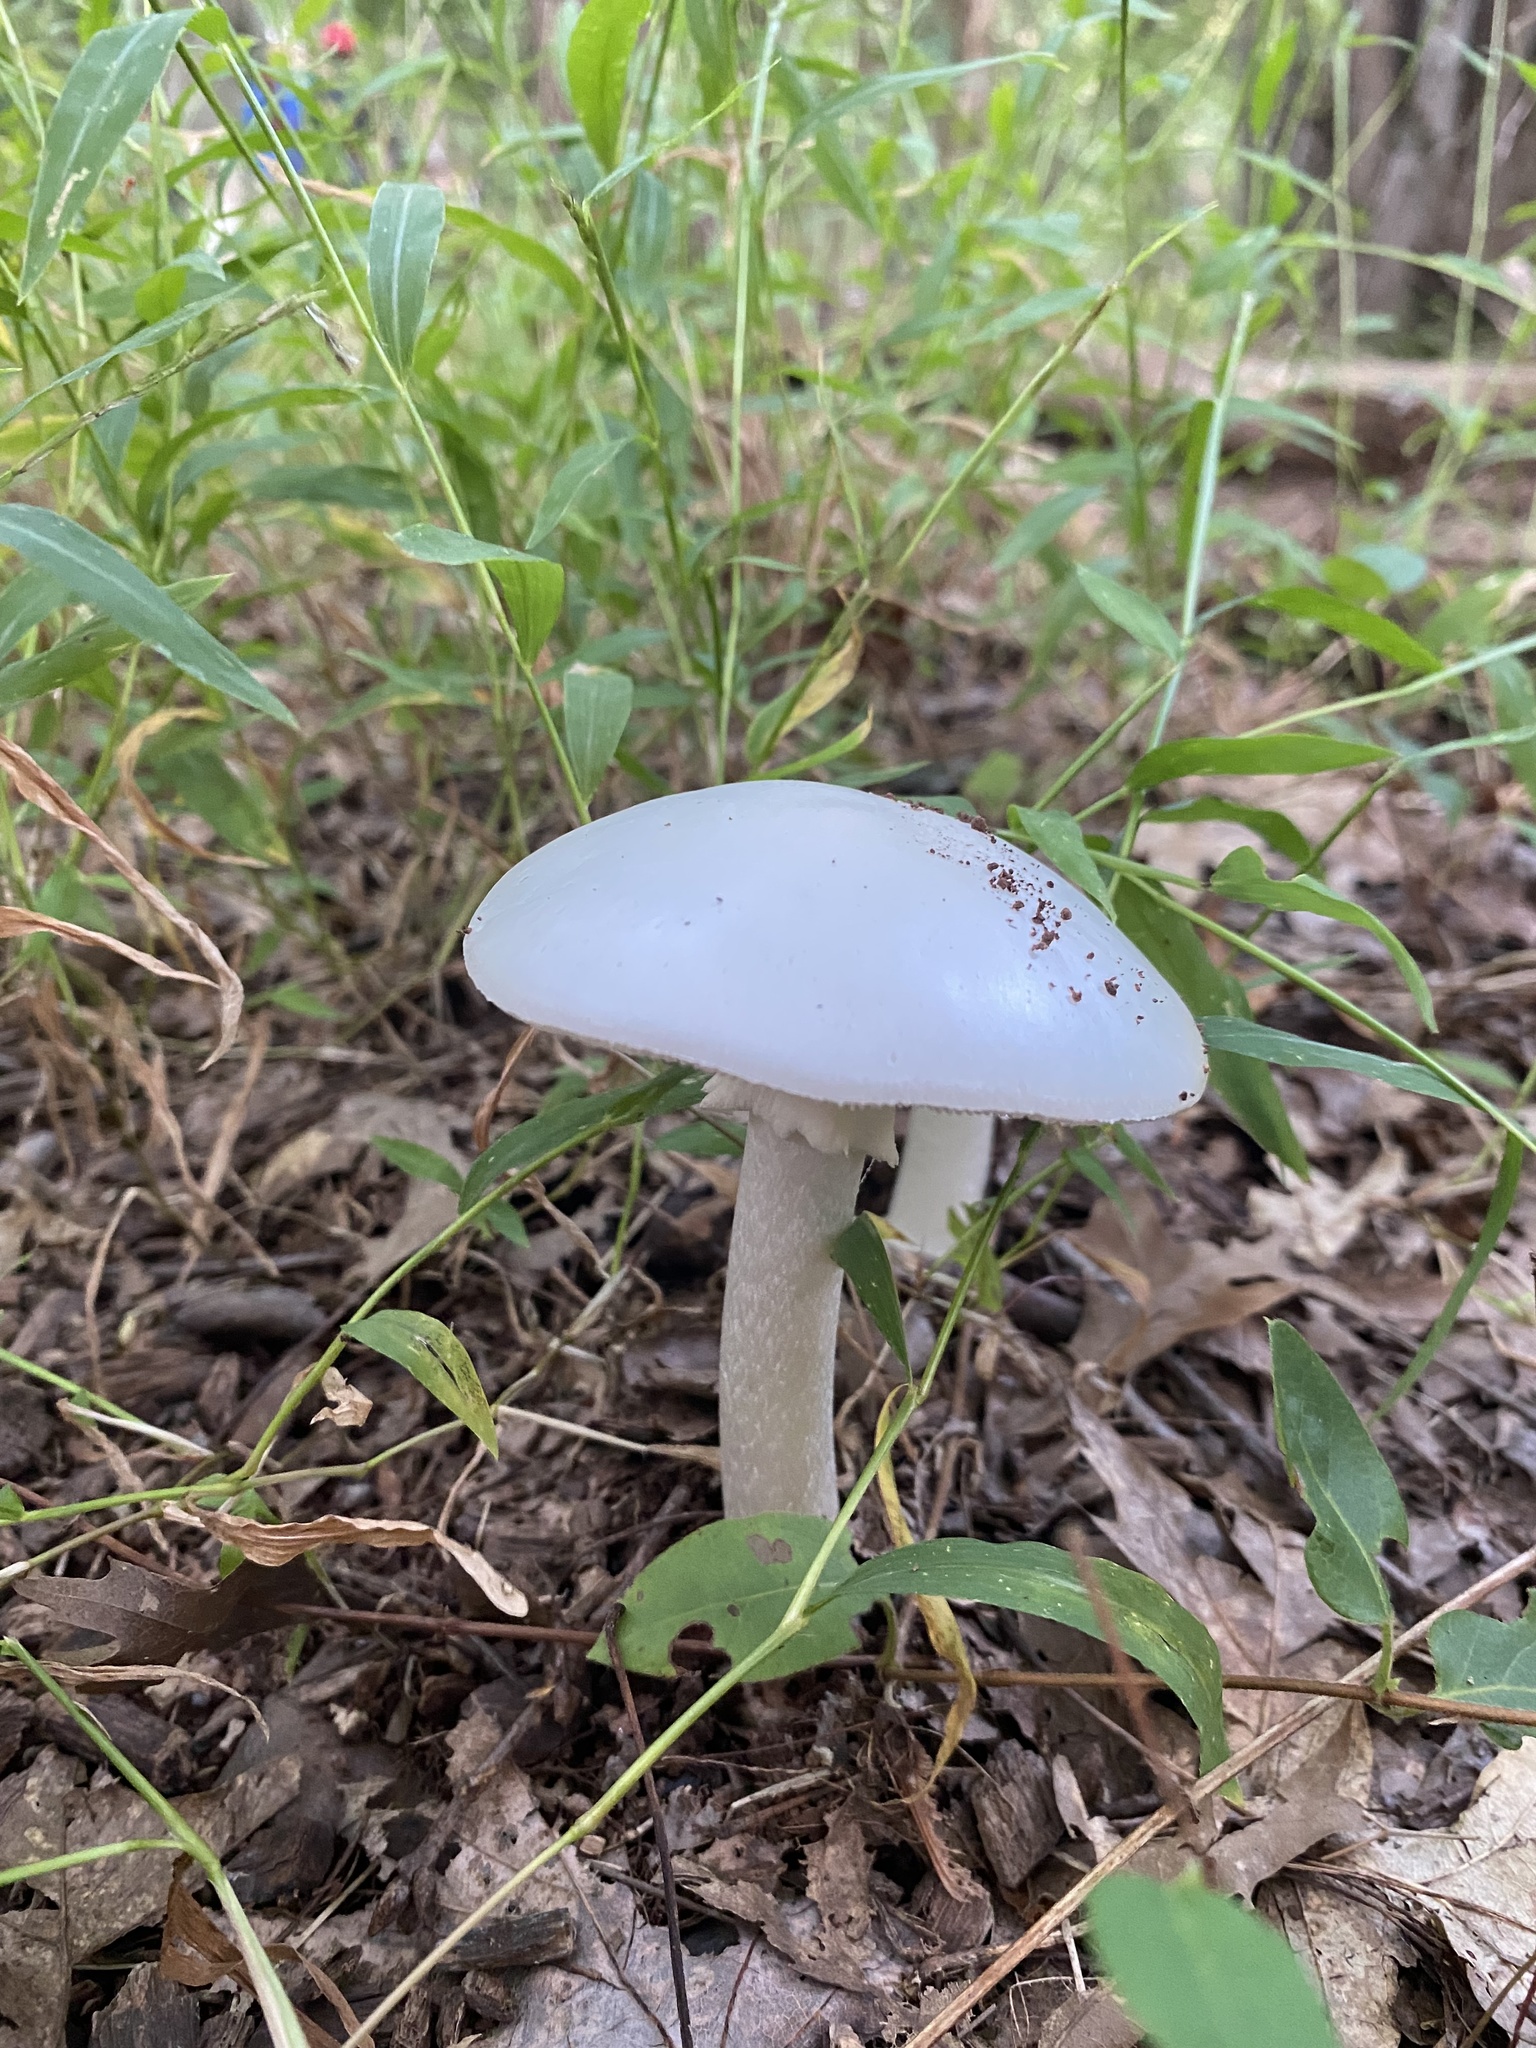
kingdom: Fungi
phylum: Basidiomycota
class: Agaricomycetes
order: Agaricales
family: Amanitaceae
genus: Amanita
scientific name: Amanita bisporigera
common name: Eastern north american destroying angel
